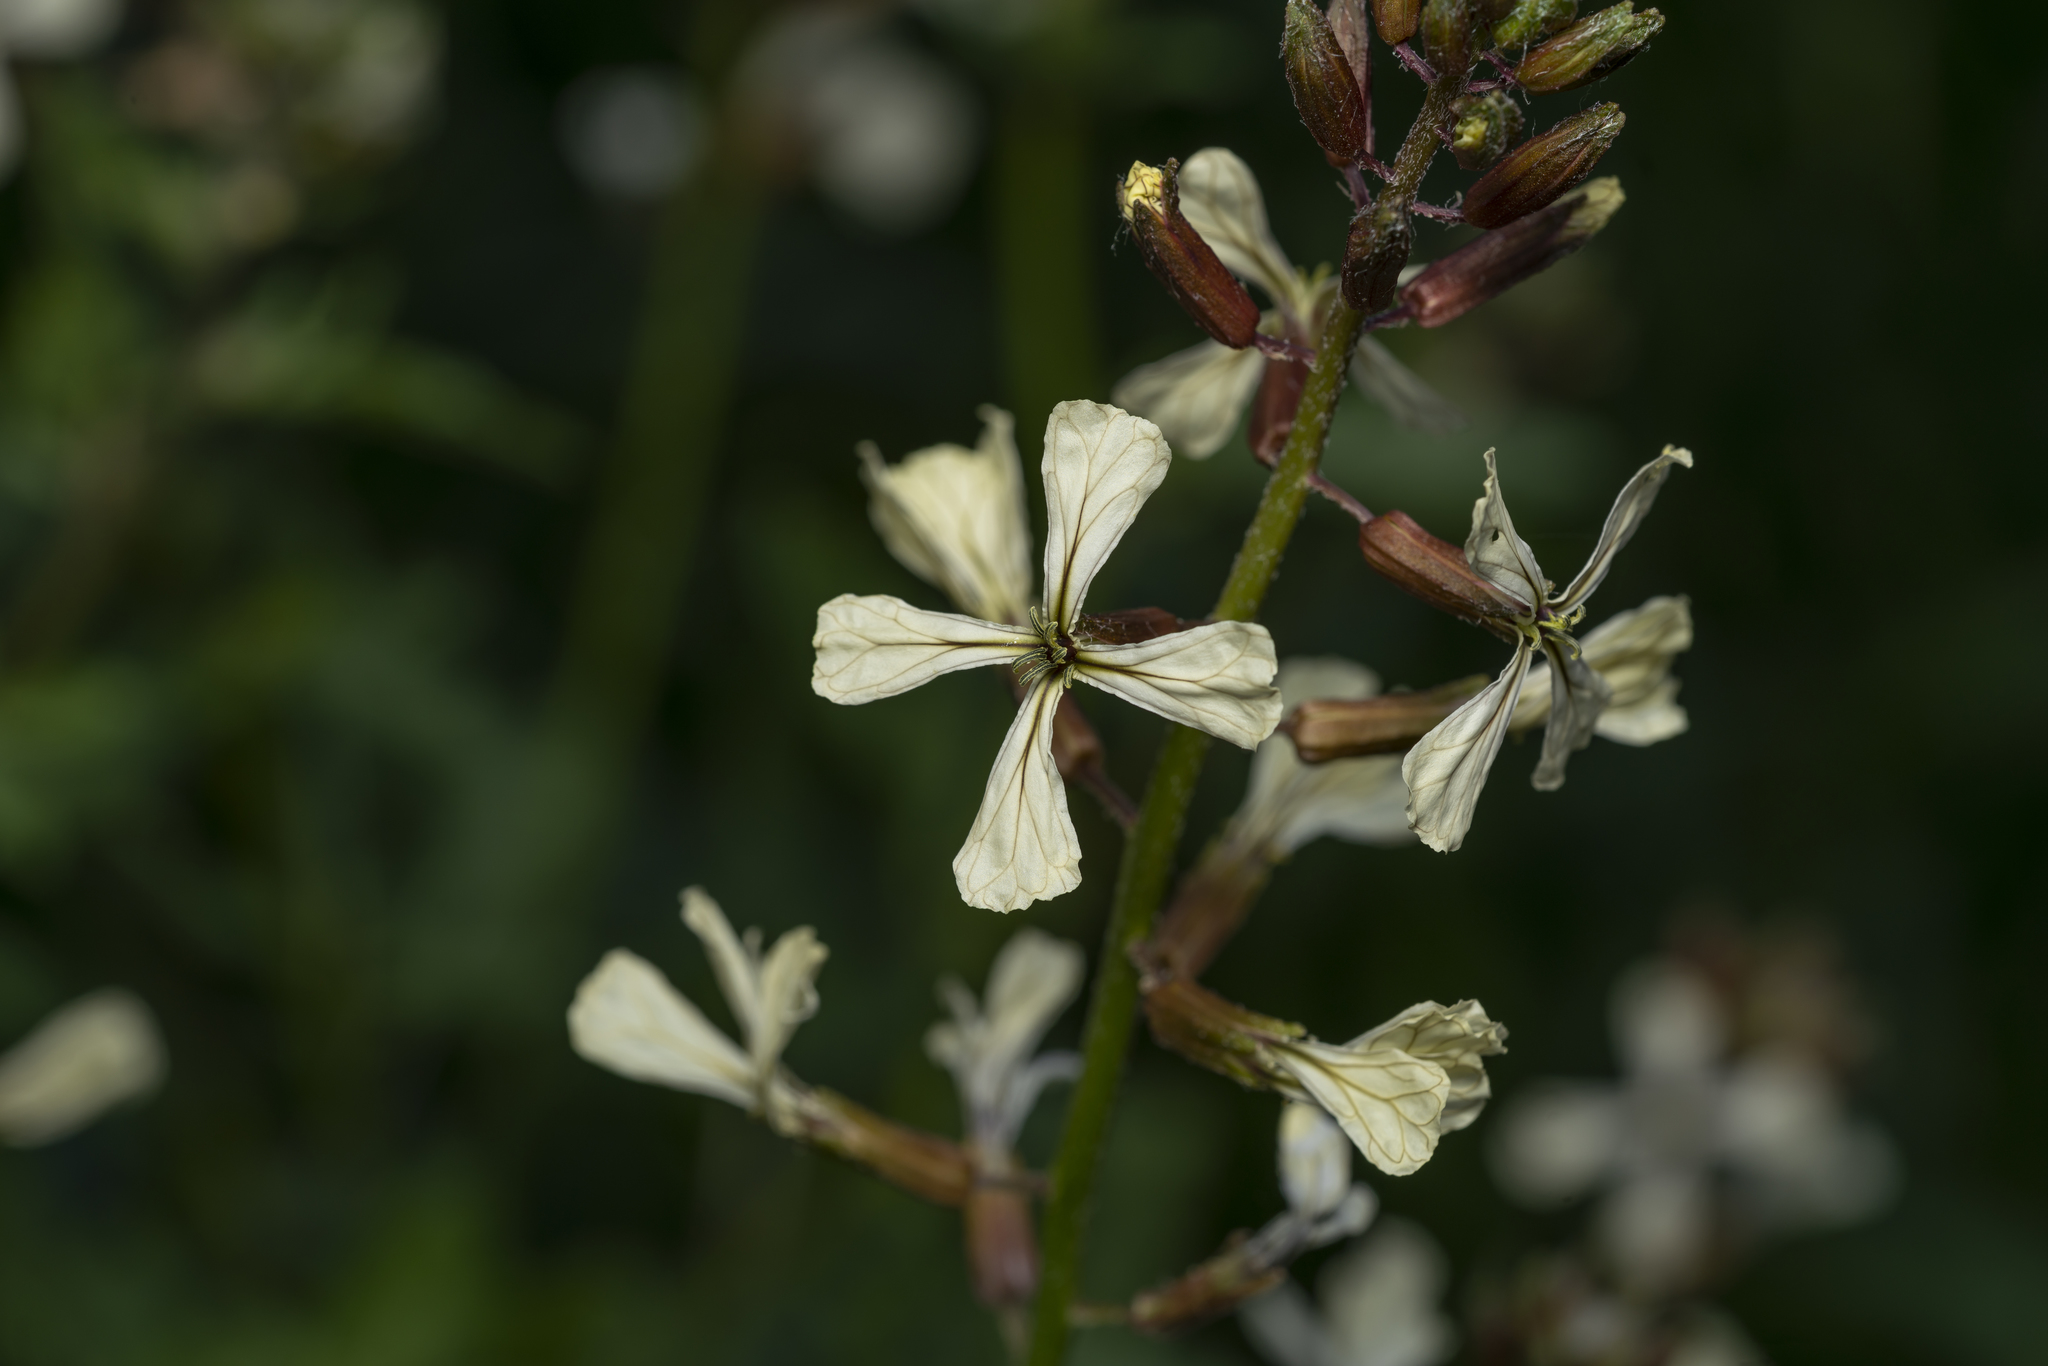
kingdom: Plantae
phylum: Tracheophyta
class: Magnoliopsida
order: Brassicales
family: Brassicaceae
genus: Eruca
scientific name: Eruca vesicaria
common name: Garden rocket
